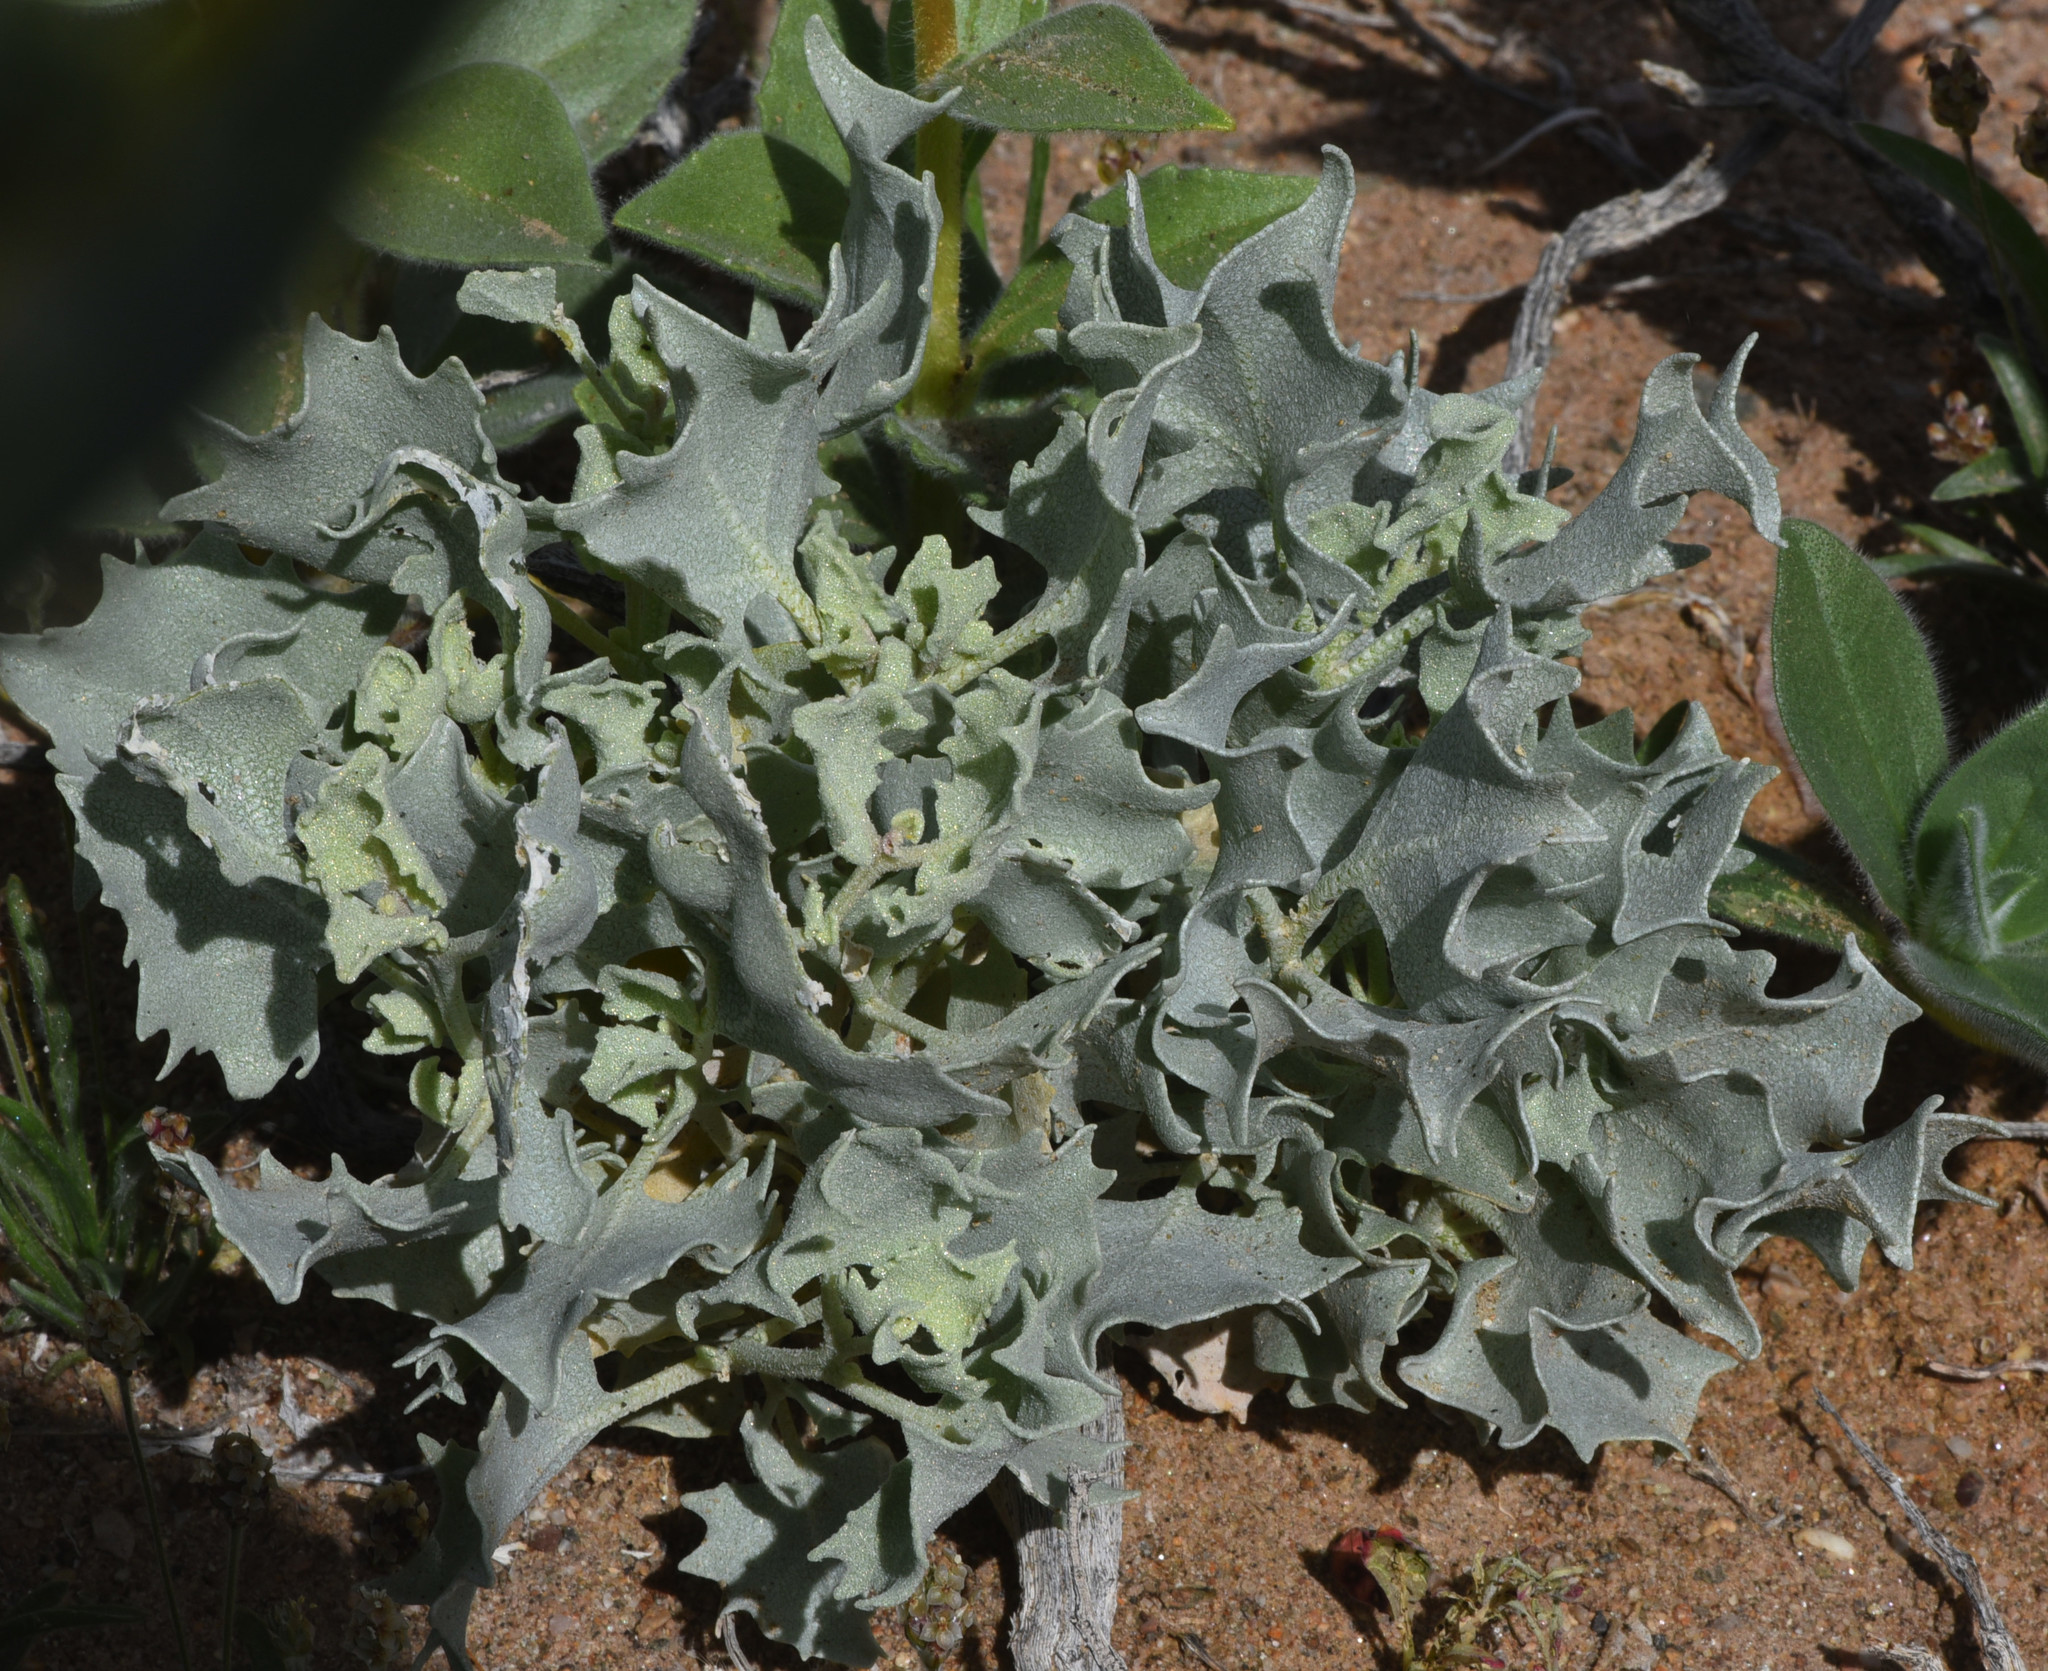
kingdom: Plantae
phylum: Tracheophyta
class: Magnoliopsida
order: Caryophyllales
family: Amaranthaceae
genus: Atriplex
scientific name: Atriplex hymenelytra
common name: Desert-holly
